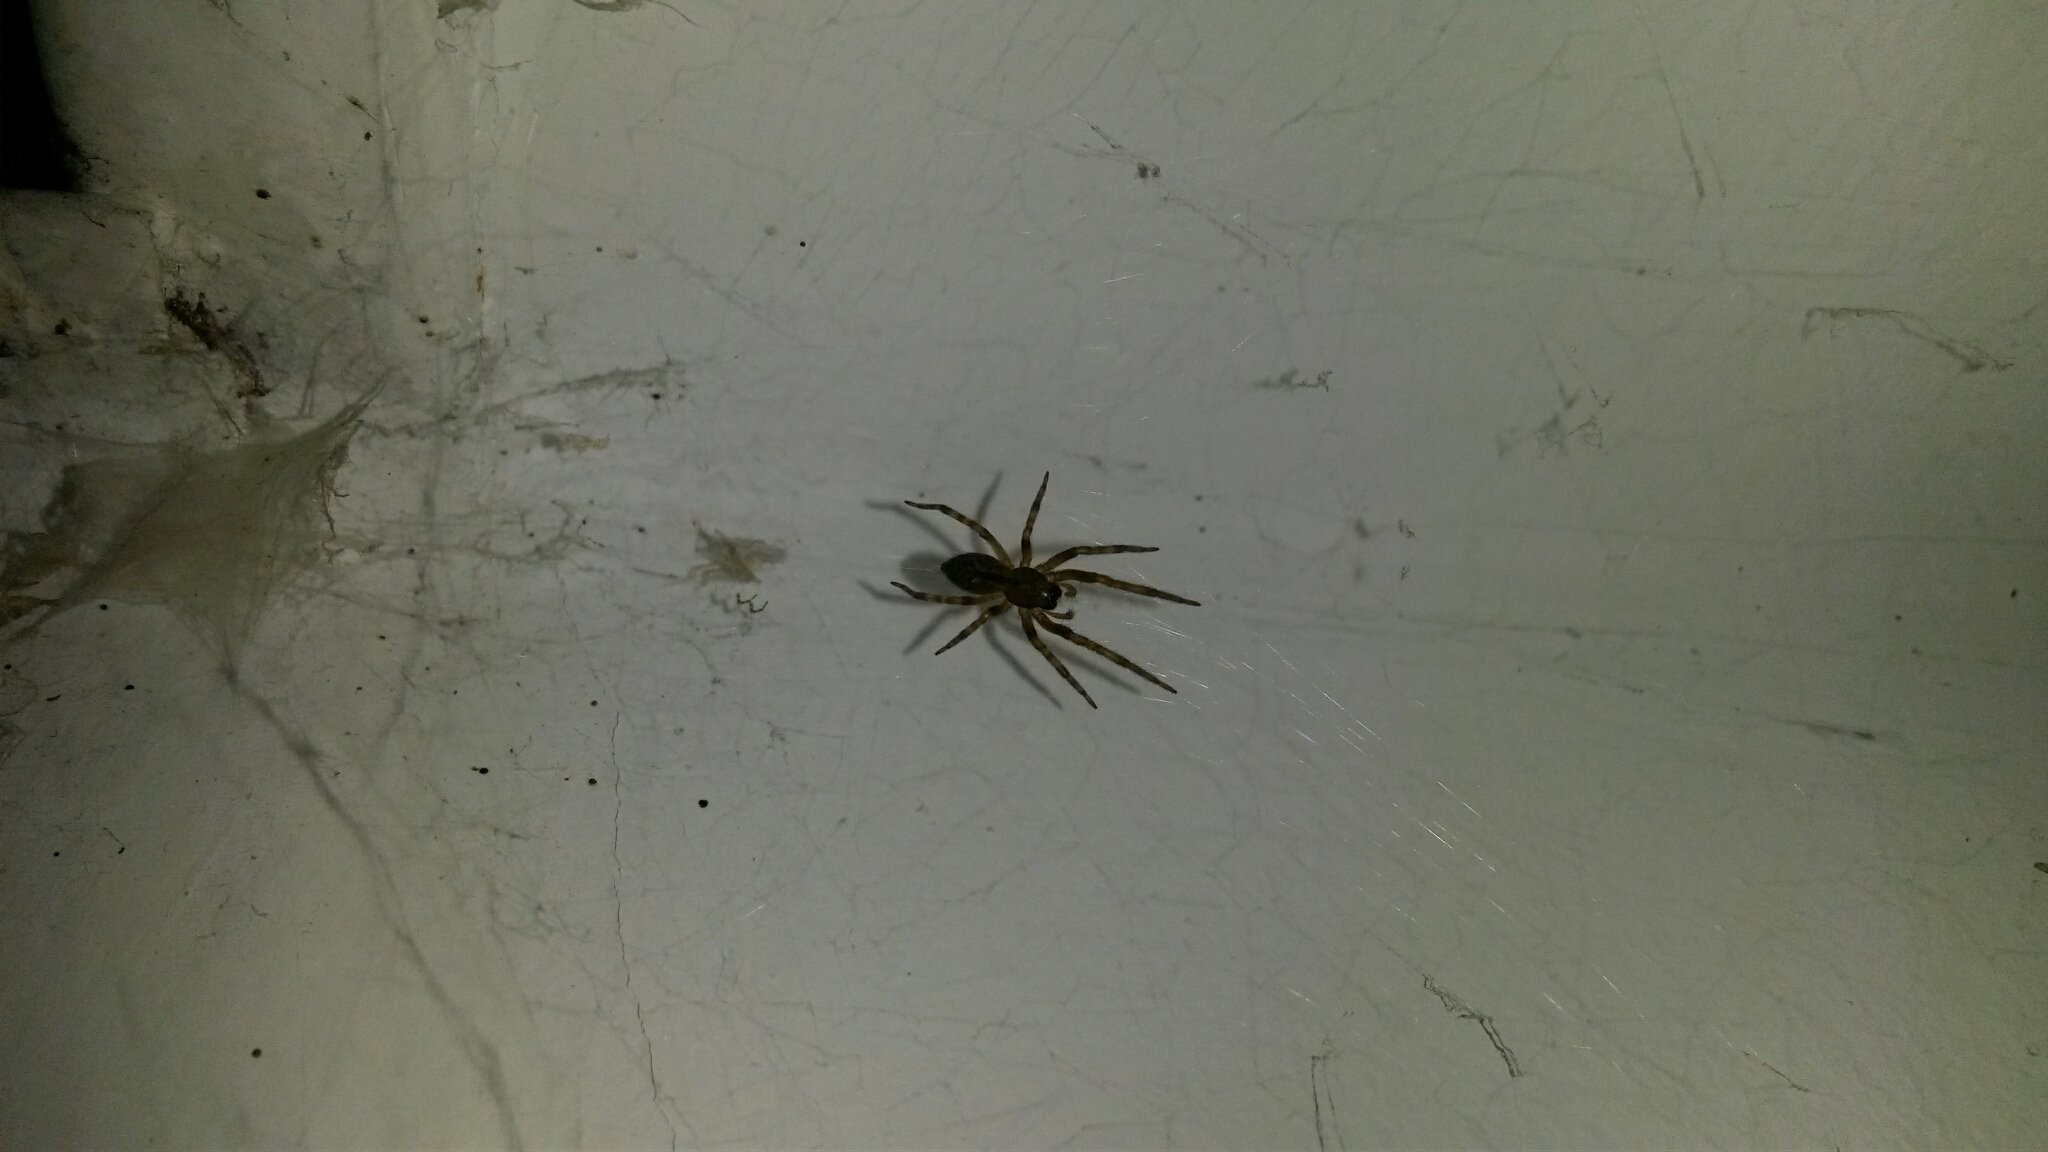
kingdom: Animalia
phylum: Arthropoda
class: Arachnida
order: Araneae
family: Desidae
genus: Badumna
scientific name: Badumna longinqua
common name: Gray house spider
